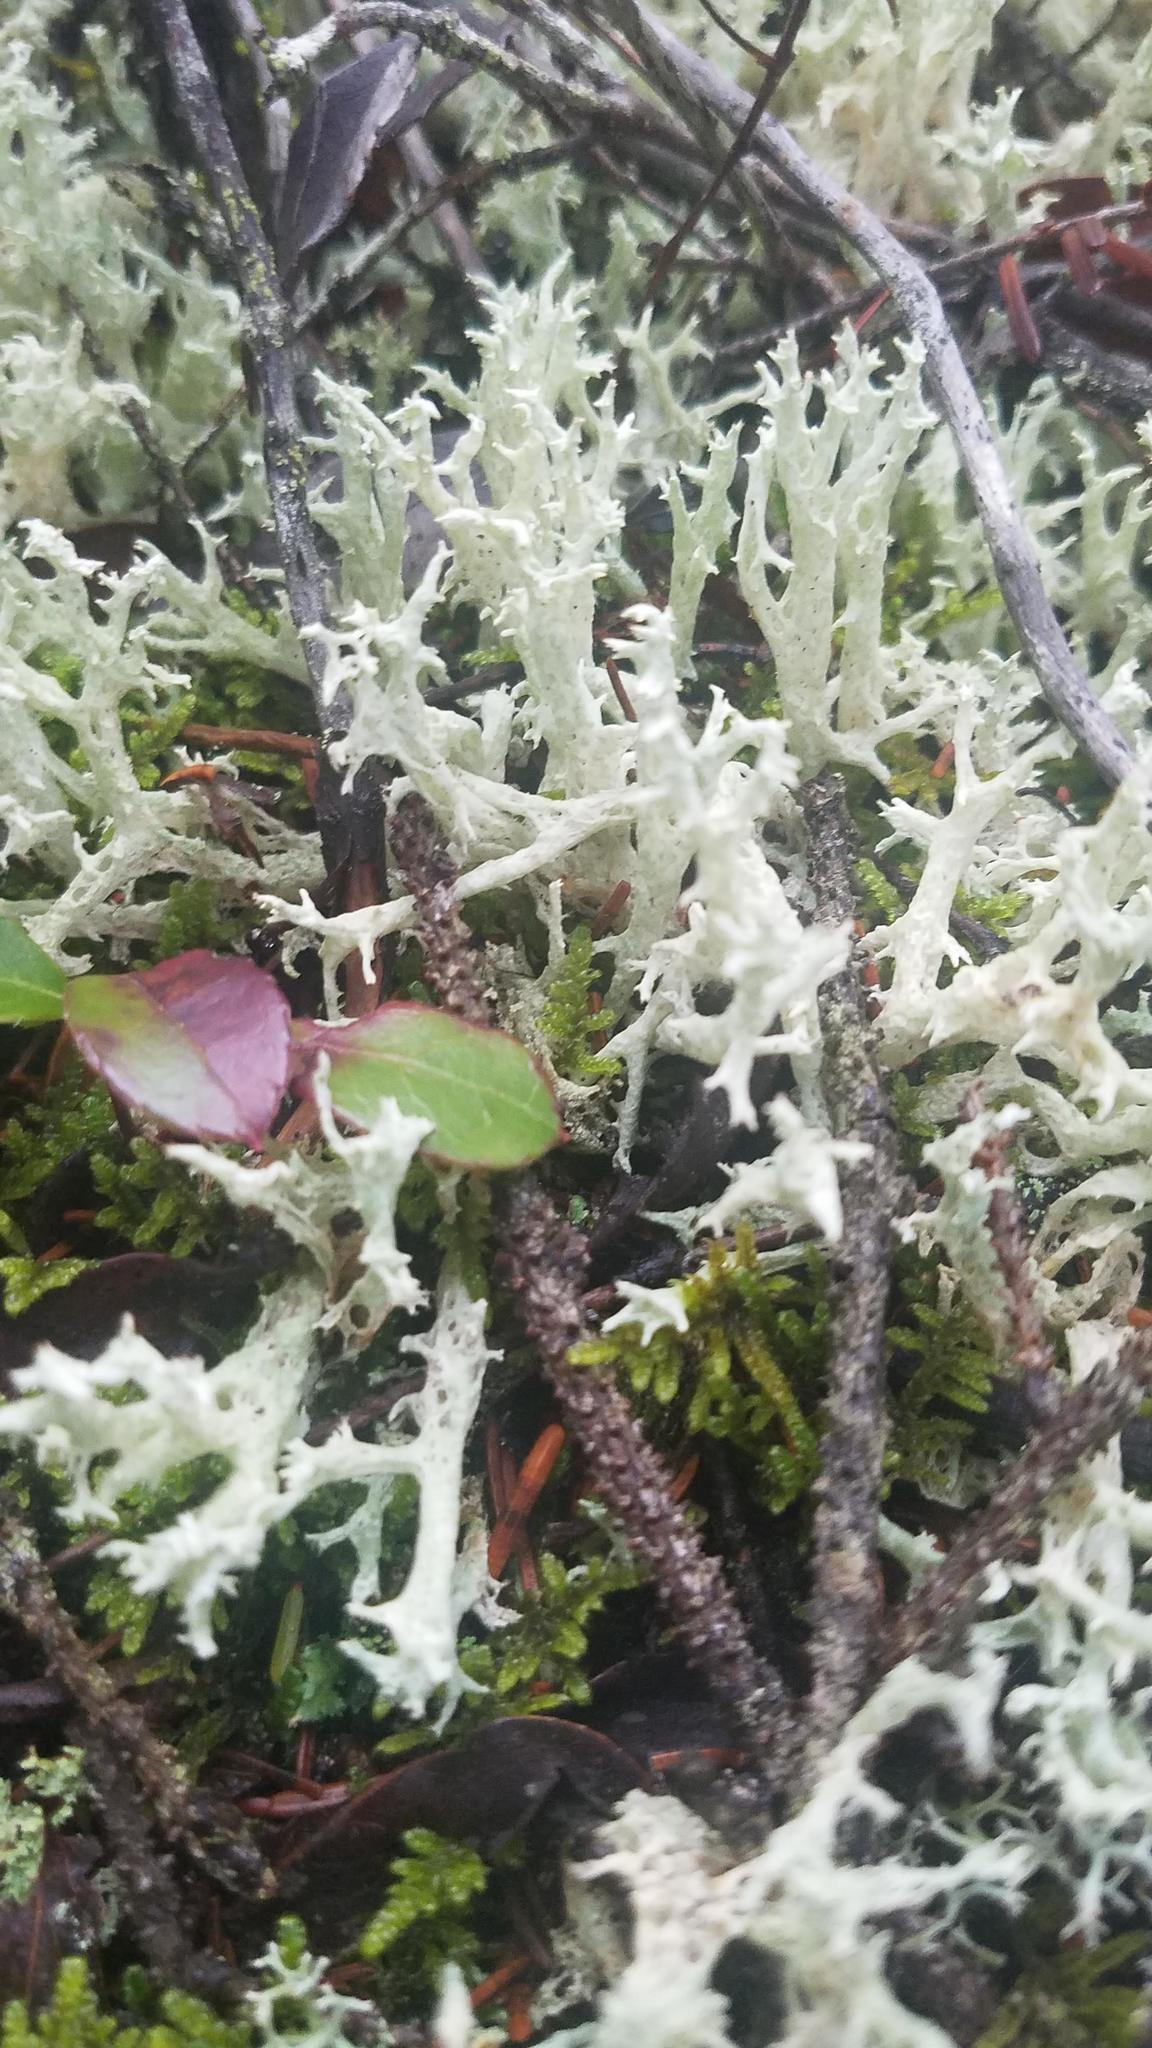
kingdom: Fungi
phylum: Ascomycota
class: Lecanoromycetes
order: Lecanorales
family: Cladoniaceae
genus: Cladonia
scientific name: Cladonia boryi
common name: Fishnet cladonia
